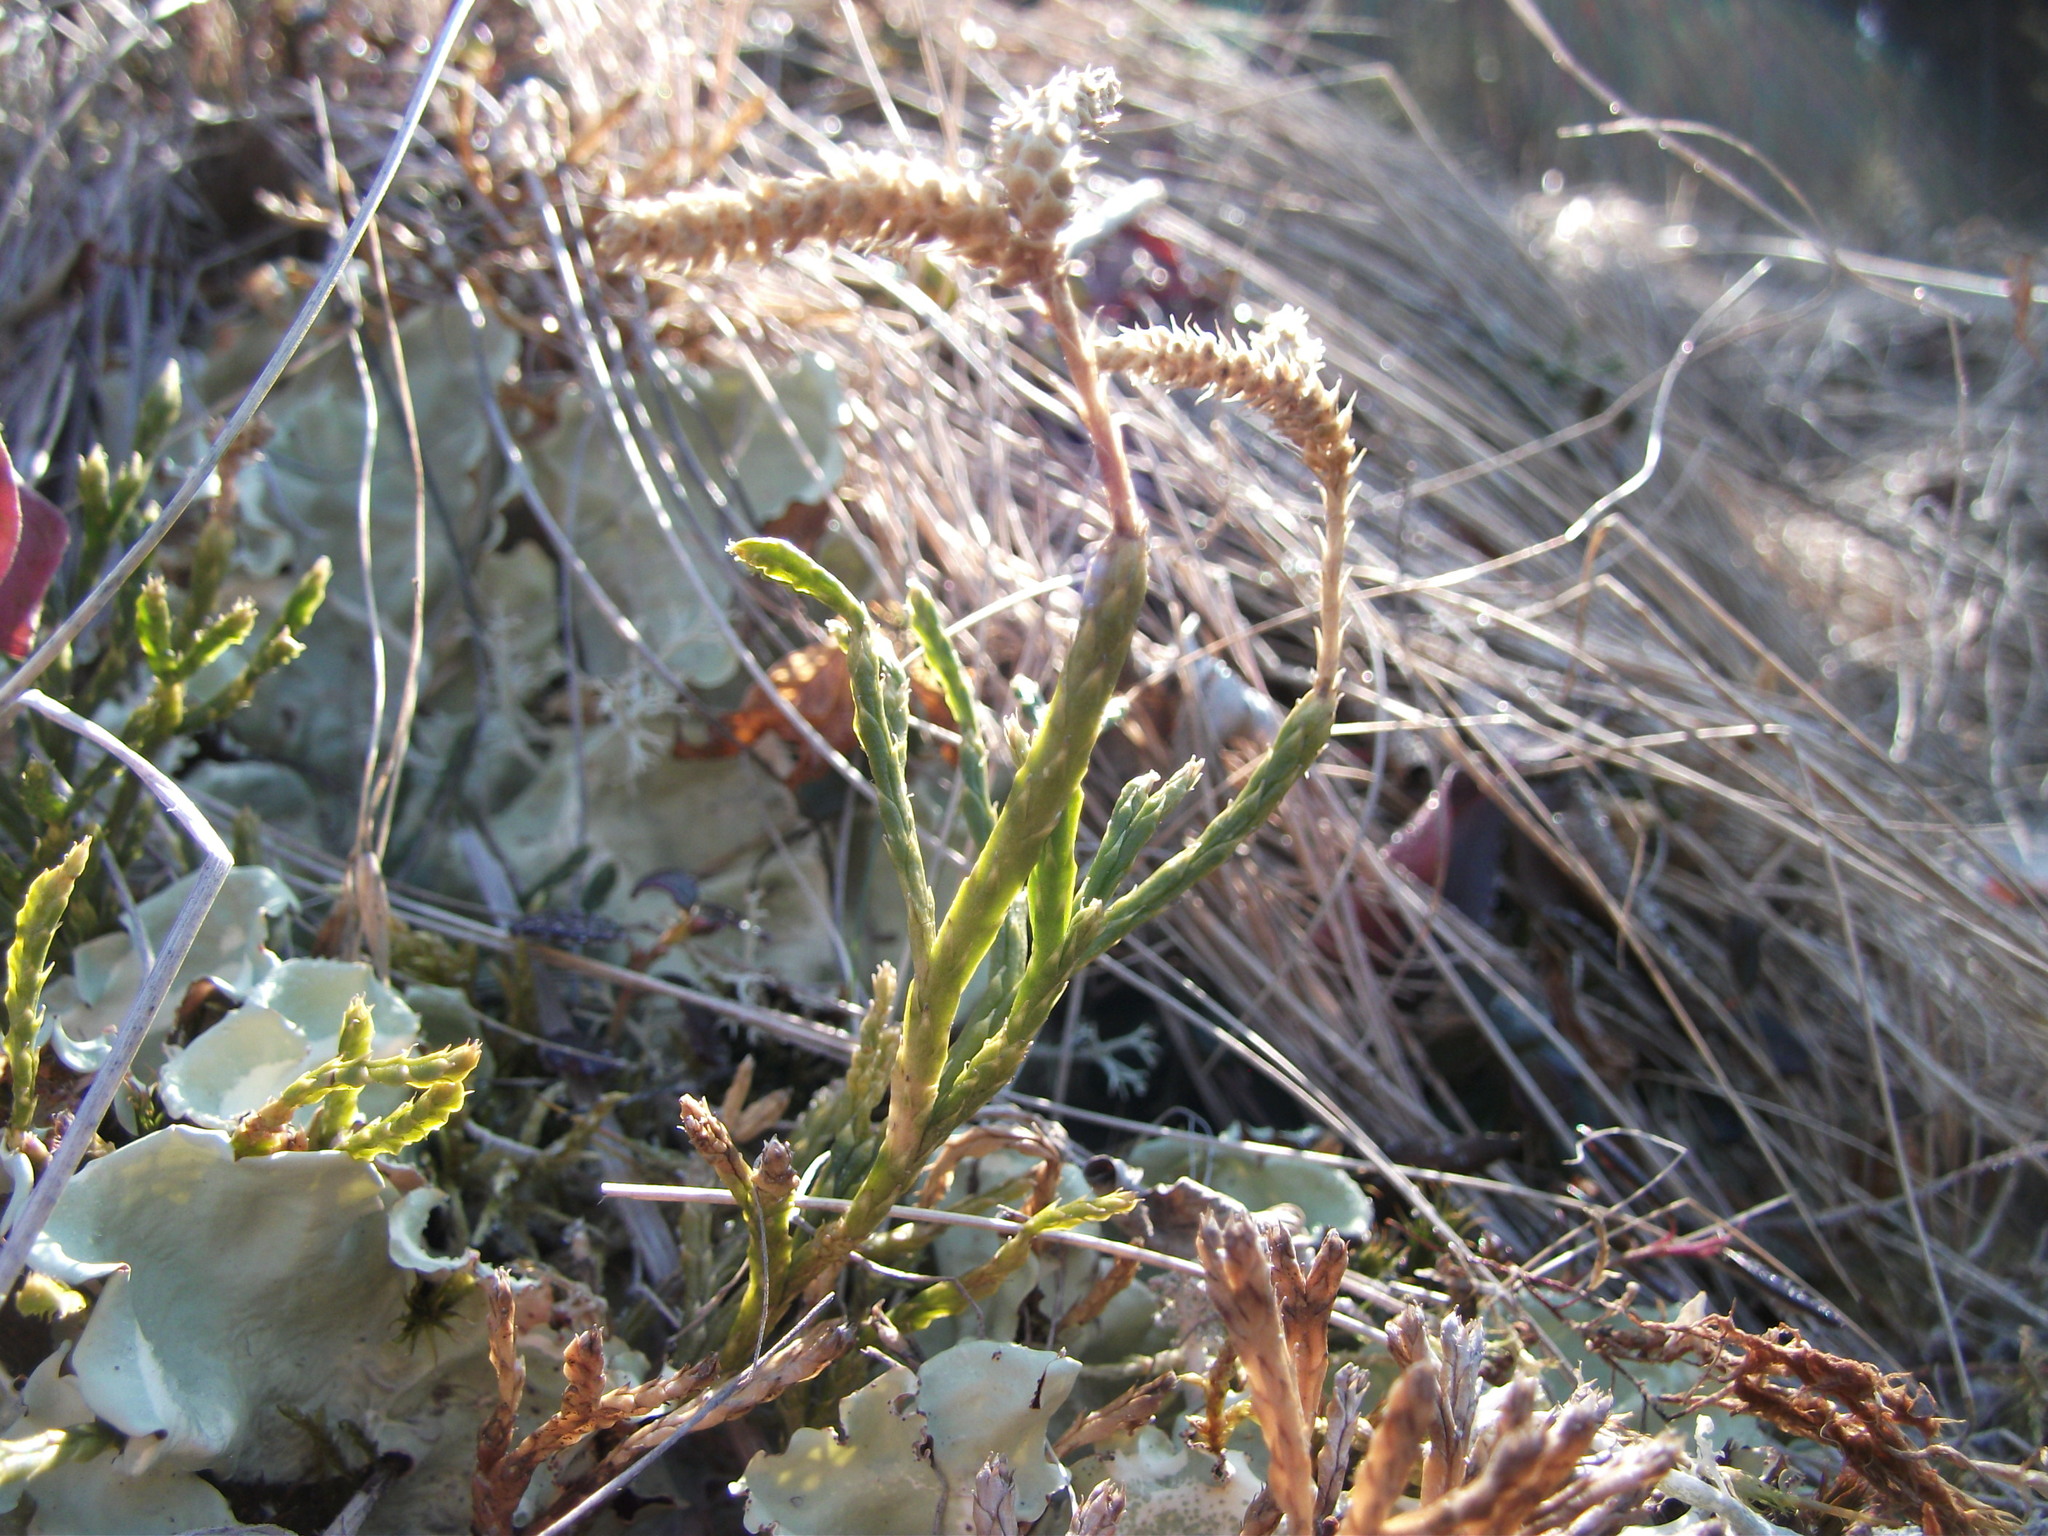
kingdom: Plantae
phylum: Tracheophyta
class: Lycopodiopsida
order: Lycopodiales
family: Lycopodiaceae
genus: Diphasiastrum
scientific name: Diphasiastrum complanatum
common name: Northern running-pine
